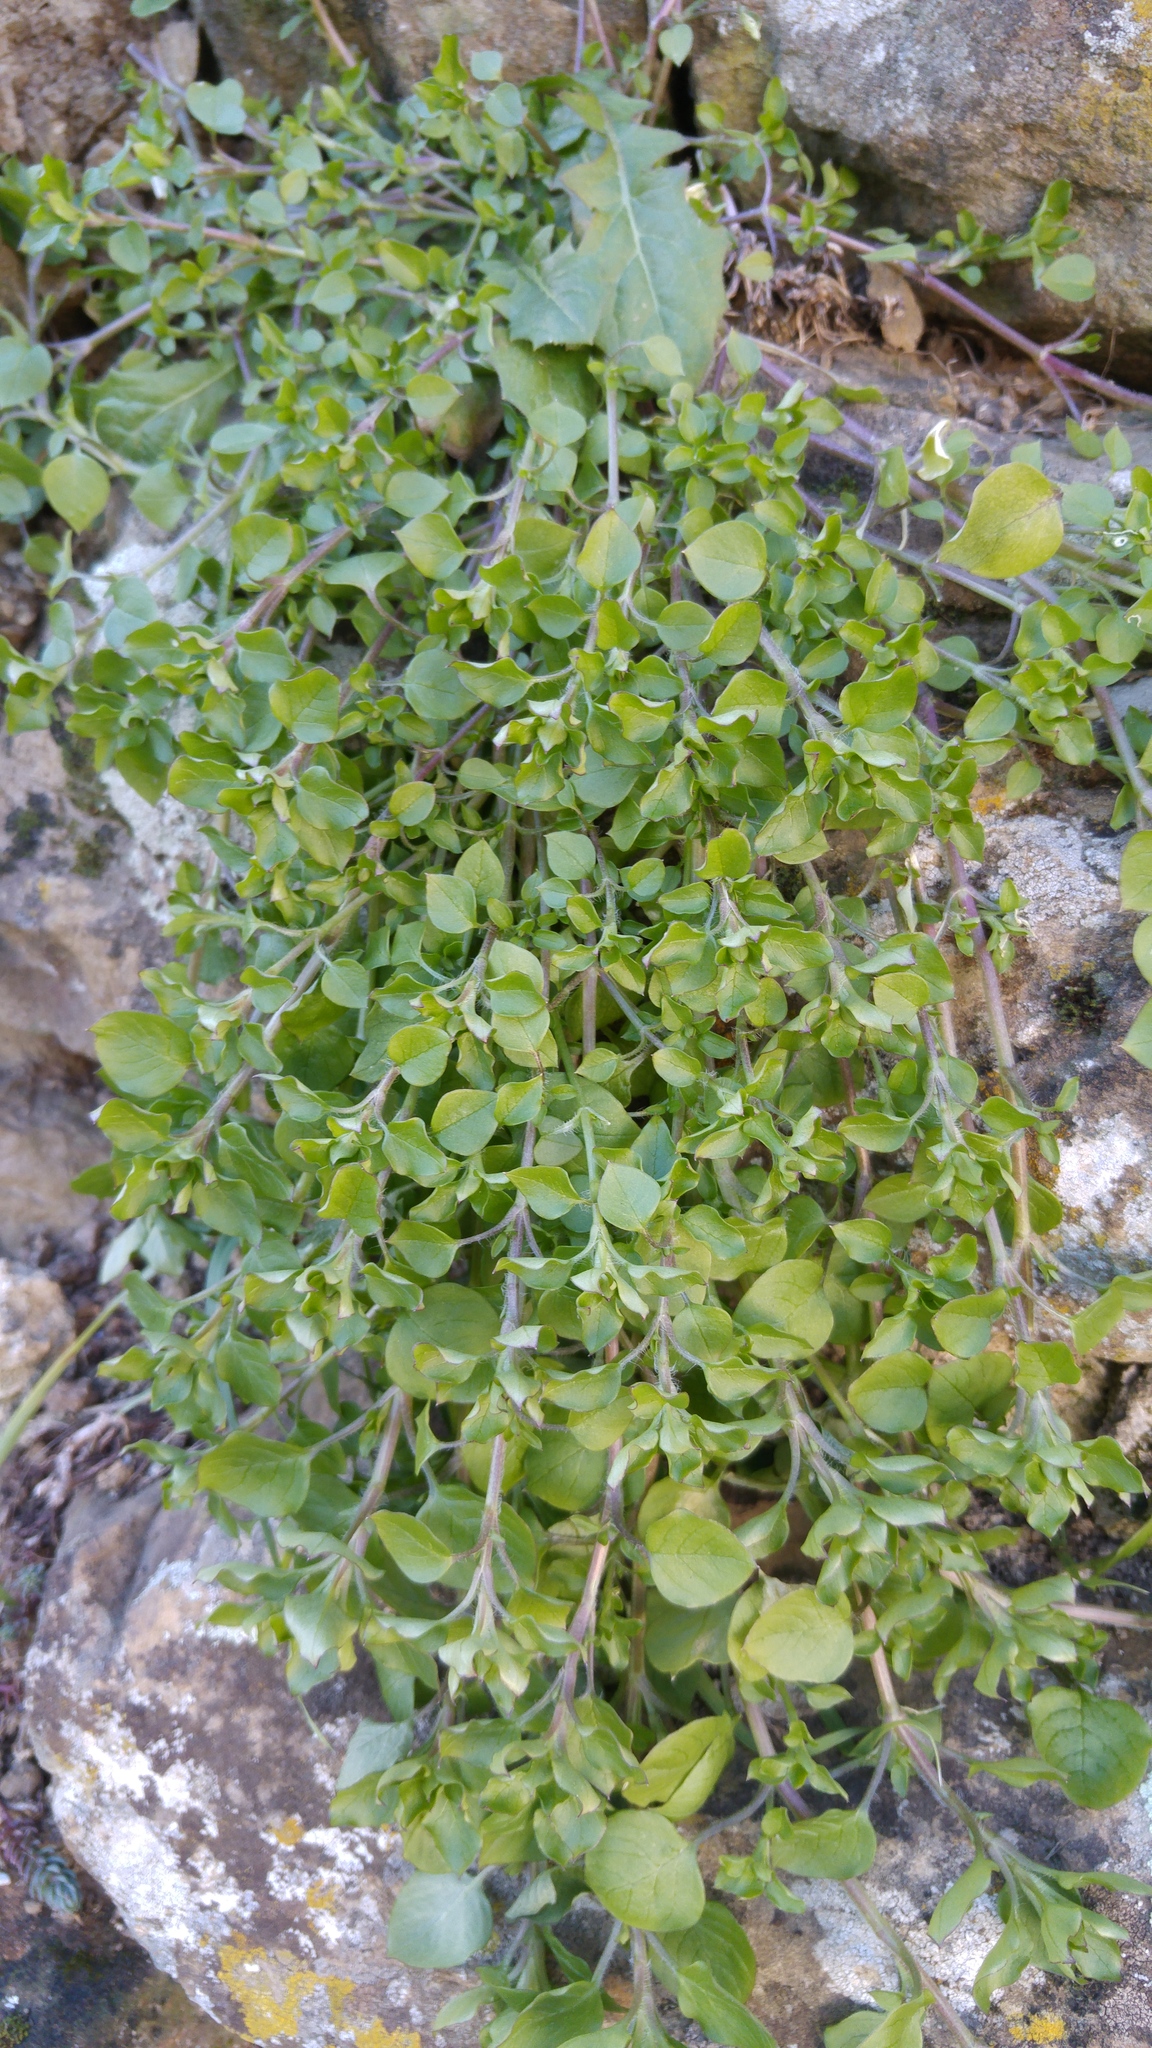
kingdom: Plantae
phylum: Tracheophyta
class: Magnoliopsida
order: Caryophyllales
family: Caryophyllaceae
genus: Stellaria
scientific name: Stellaria media
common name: Common chickweed
